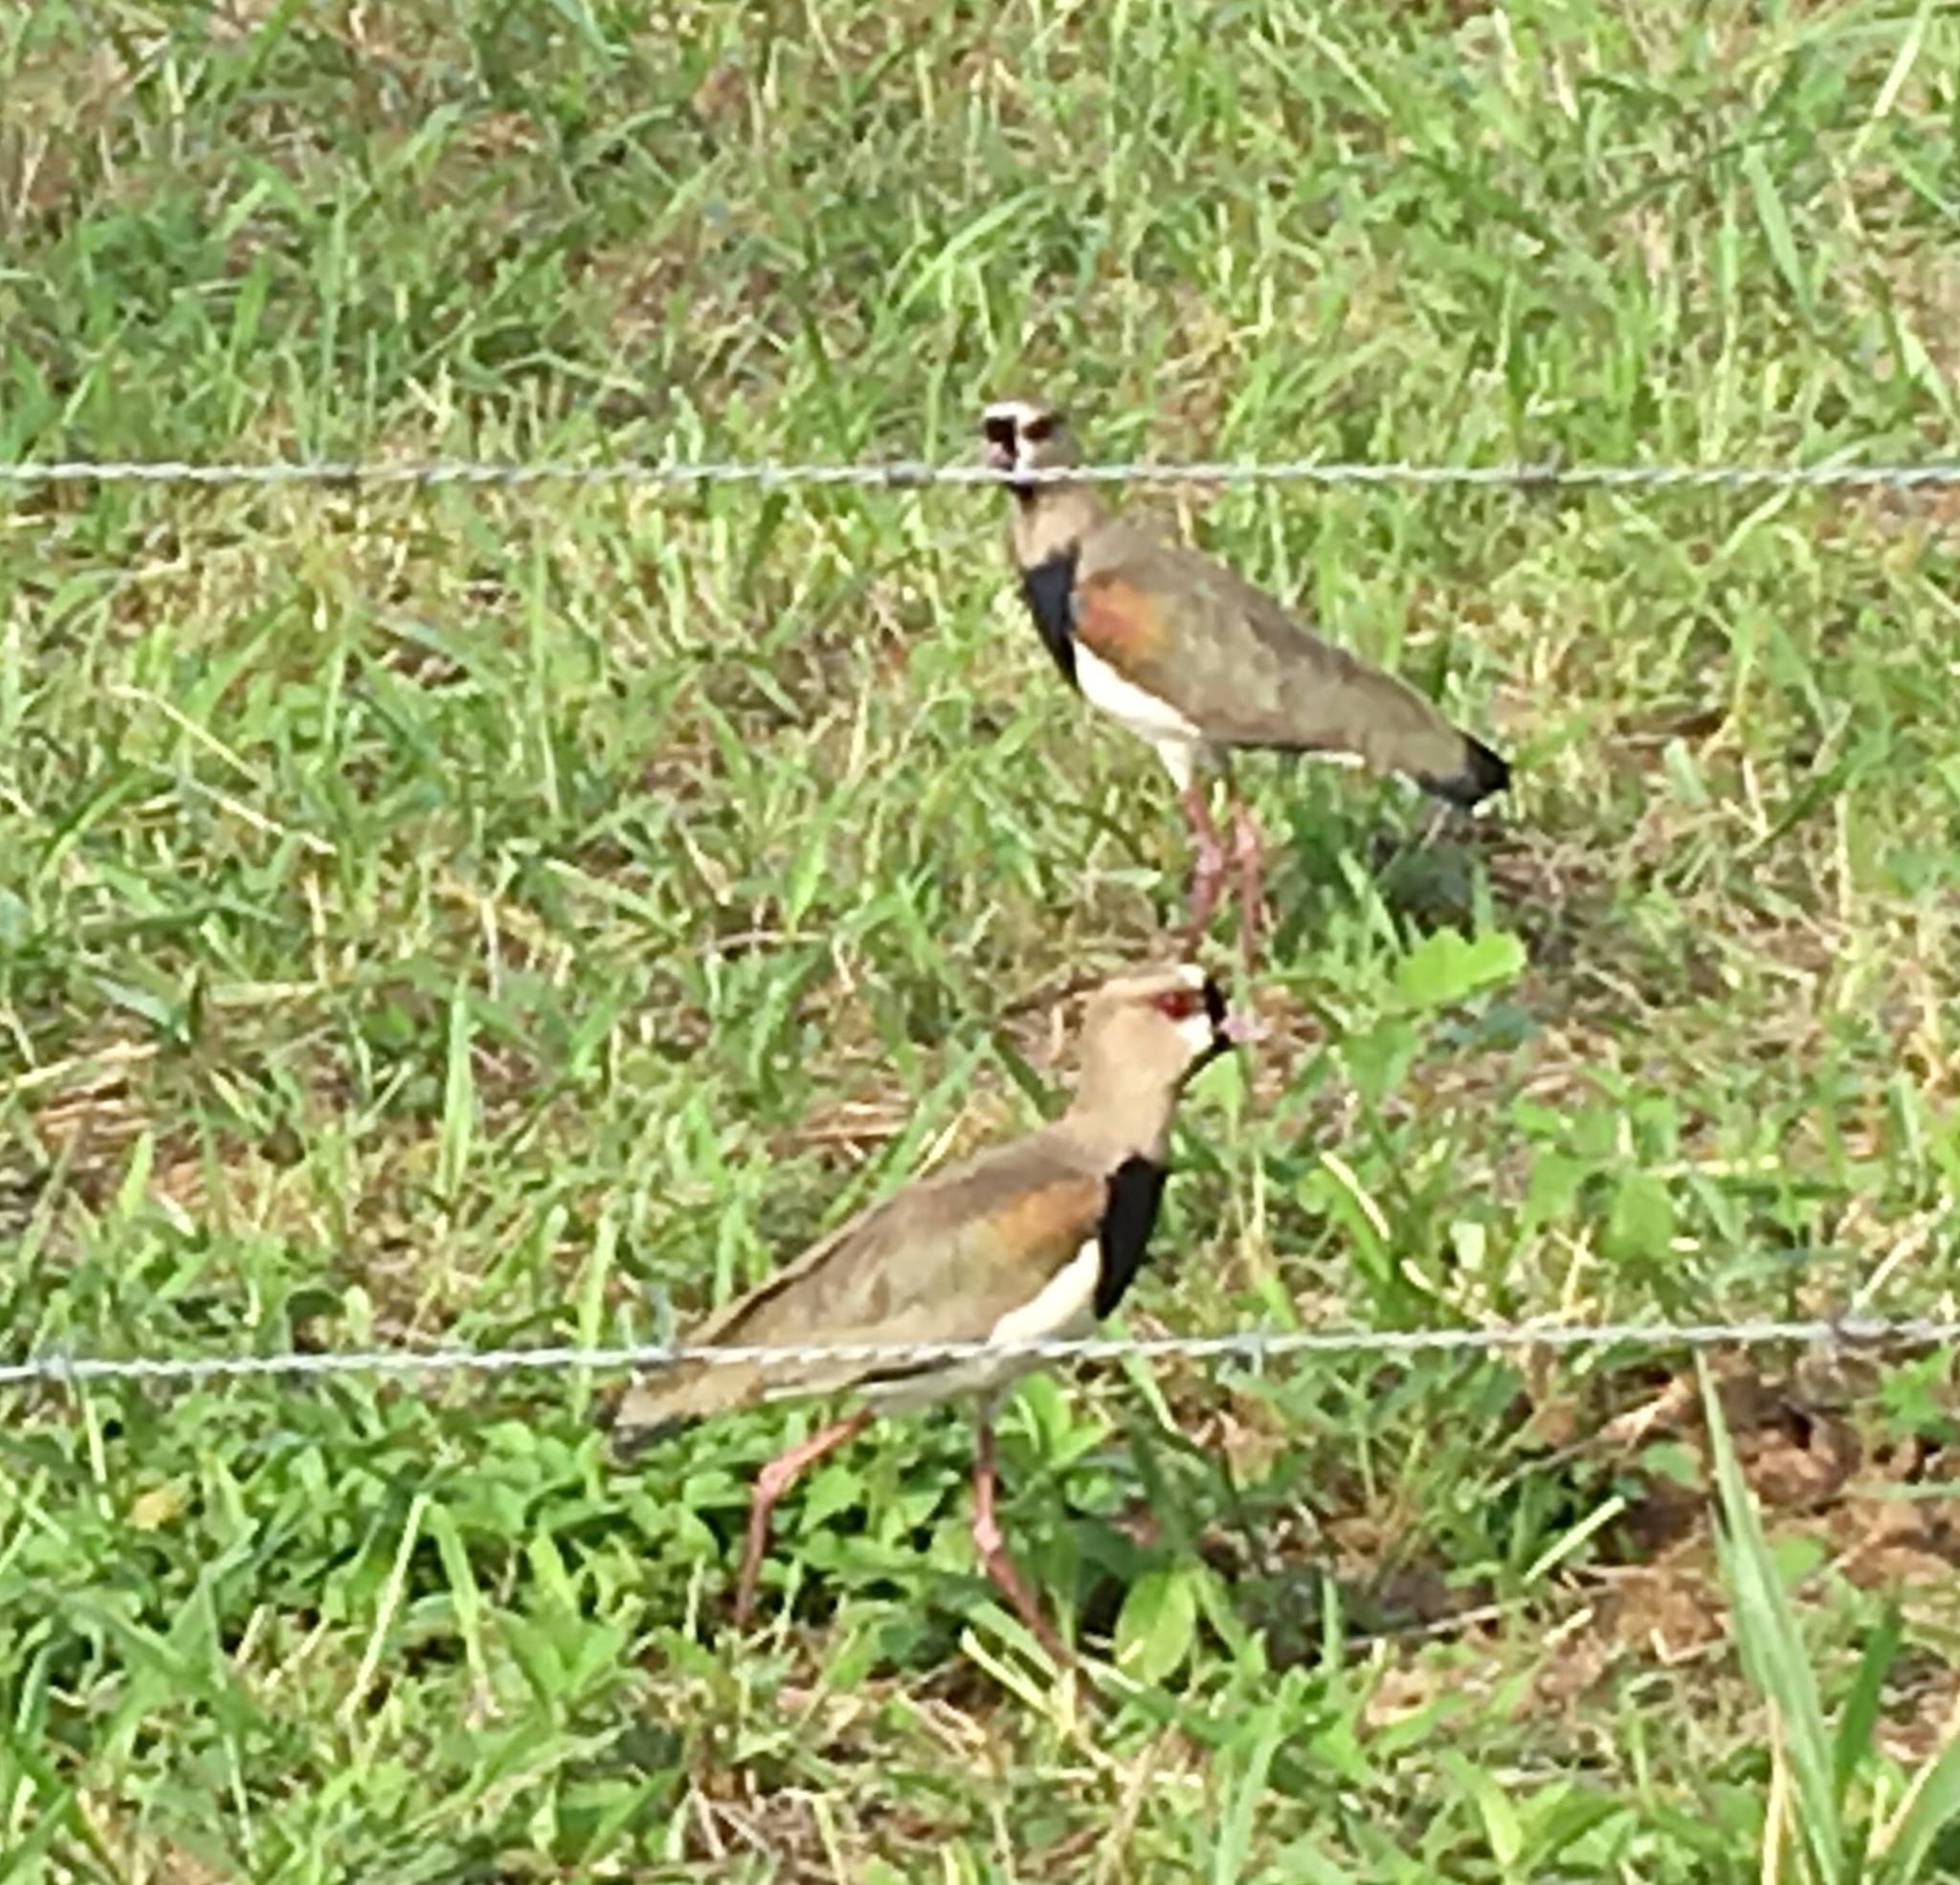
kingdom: Animalia
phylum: Chordata
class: Aves
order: Charadriiformes
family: Charadriidae
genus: Vanellus
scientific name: Vanellus chilensis
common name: Southern lapwing
